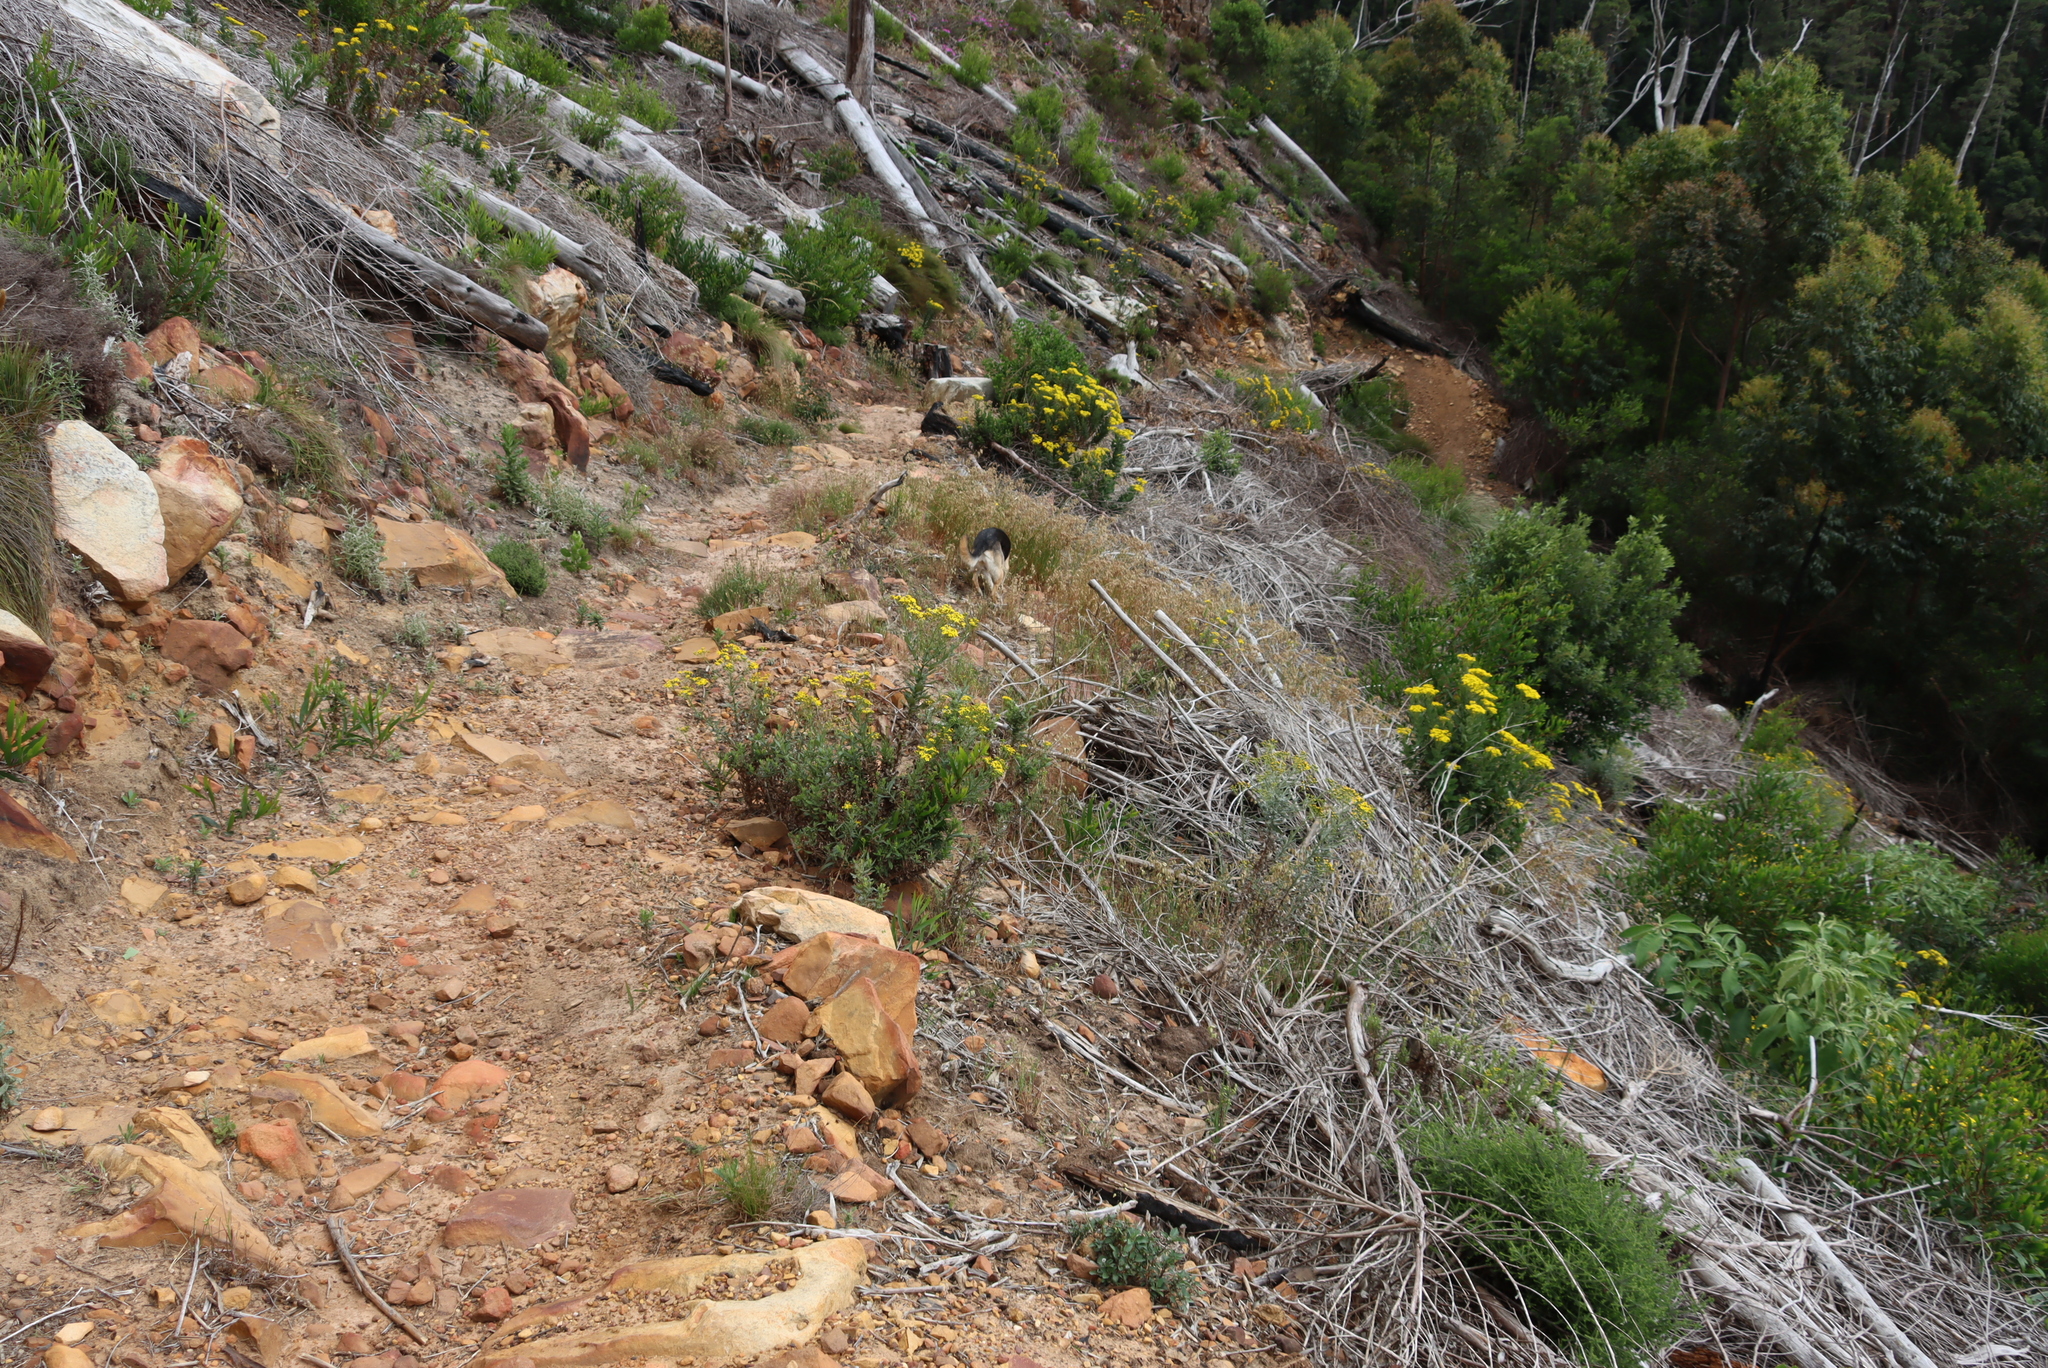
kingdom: Plantae
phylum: Tracheophyta
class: Magnoliopsida
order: Asterales
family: Asteraceae
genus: Senecio
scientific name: Senecio pterophorus
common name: Shoddy ragwort
